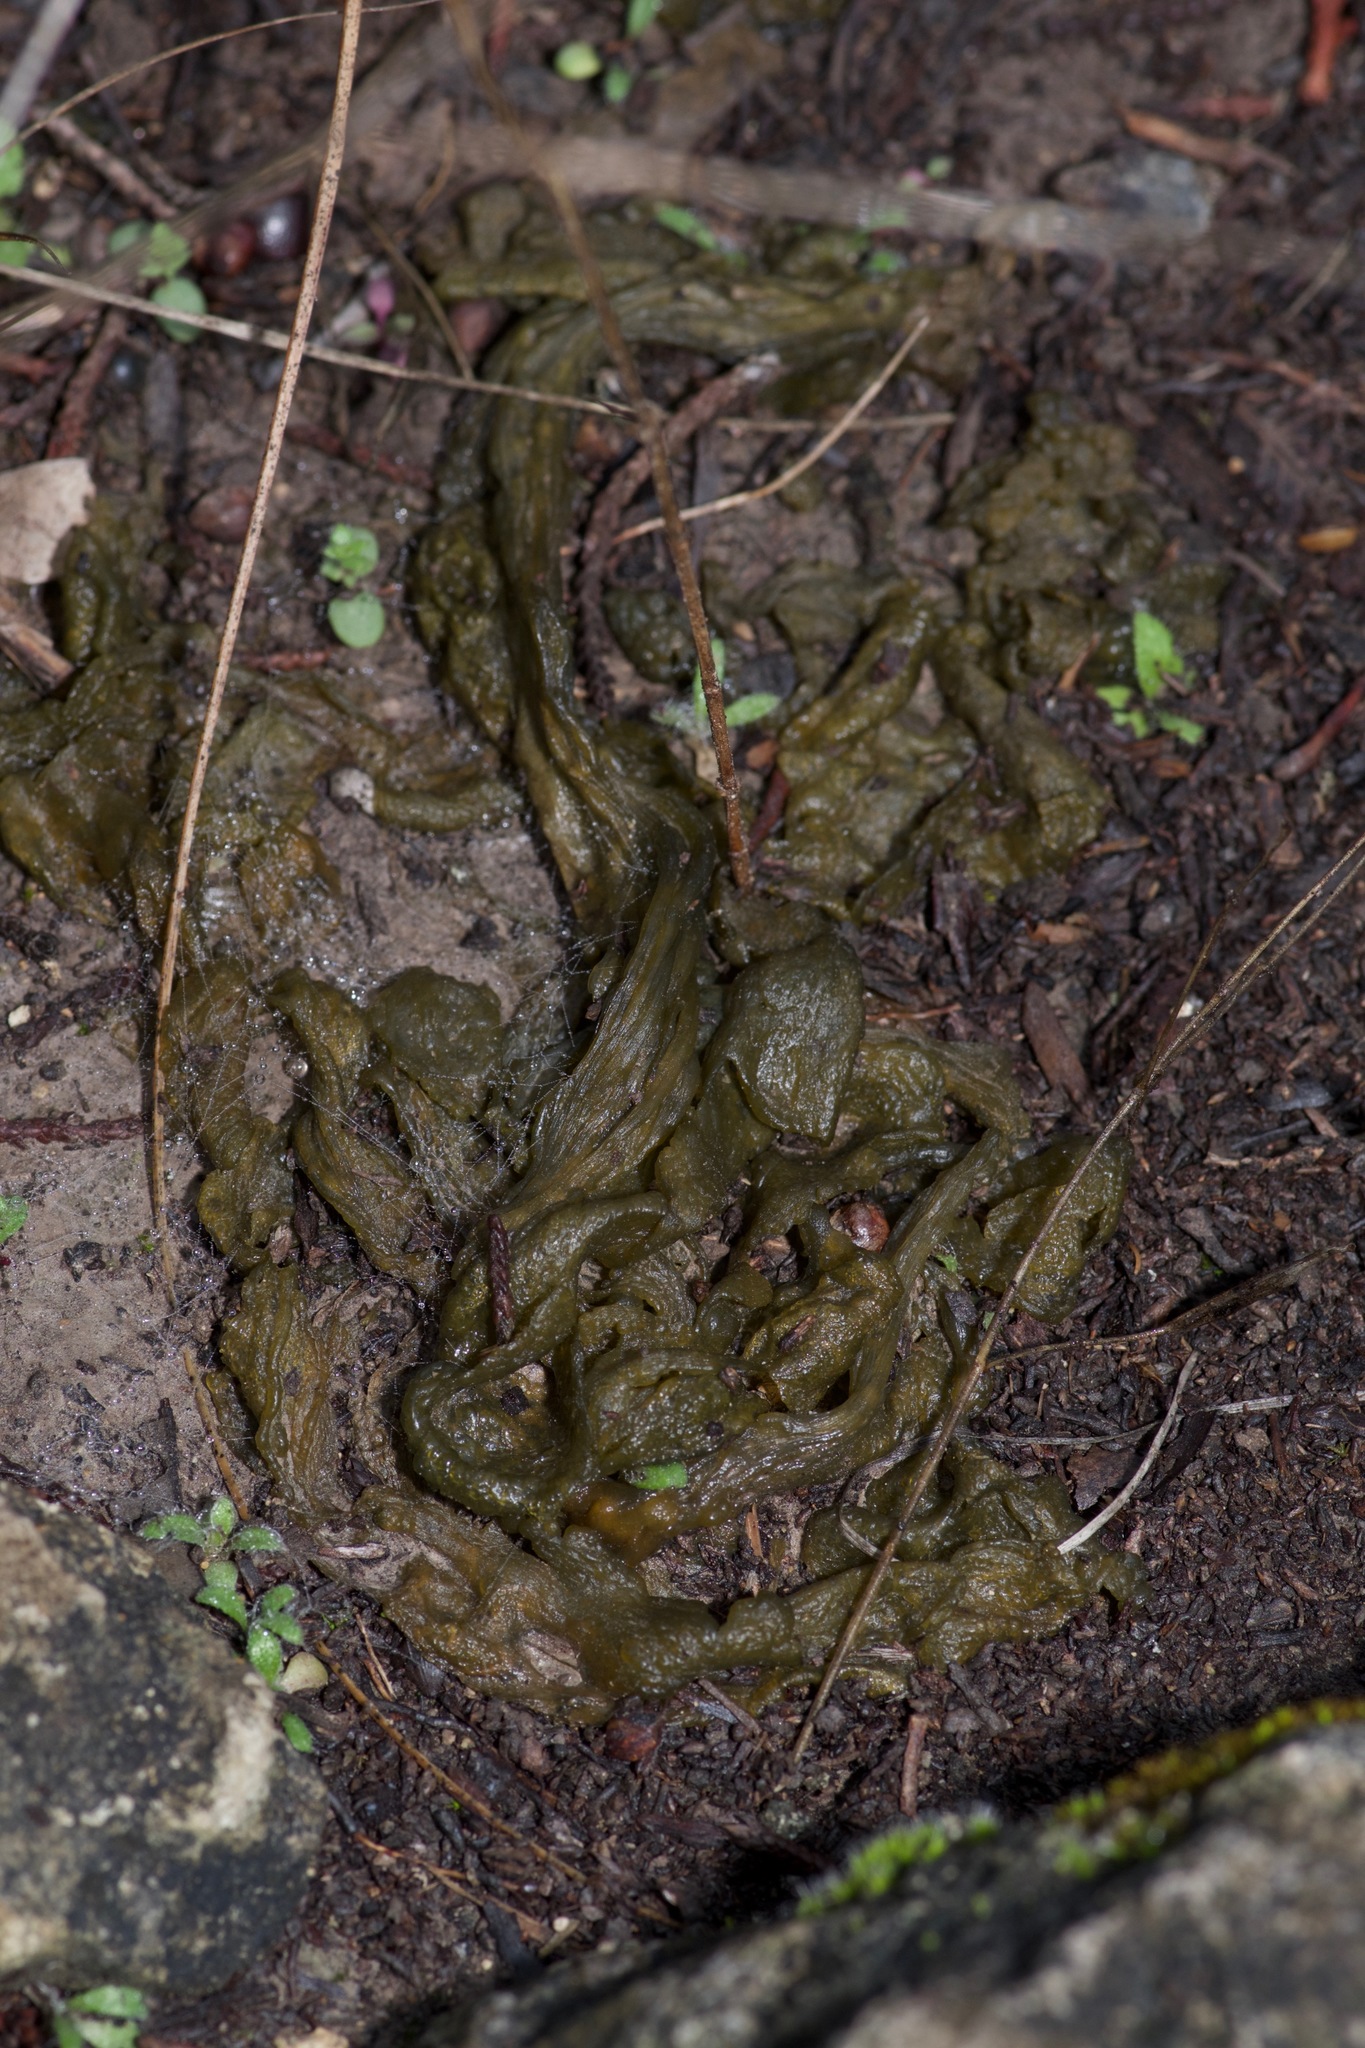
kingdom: Bacteria
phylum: Cyanobacteria
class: Cyanobacteriia
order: Cyanobacteriales
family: Nostocaceae
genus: Nostoc
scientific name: Nostoc commune
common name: Star jelly
